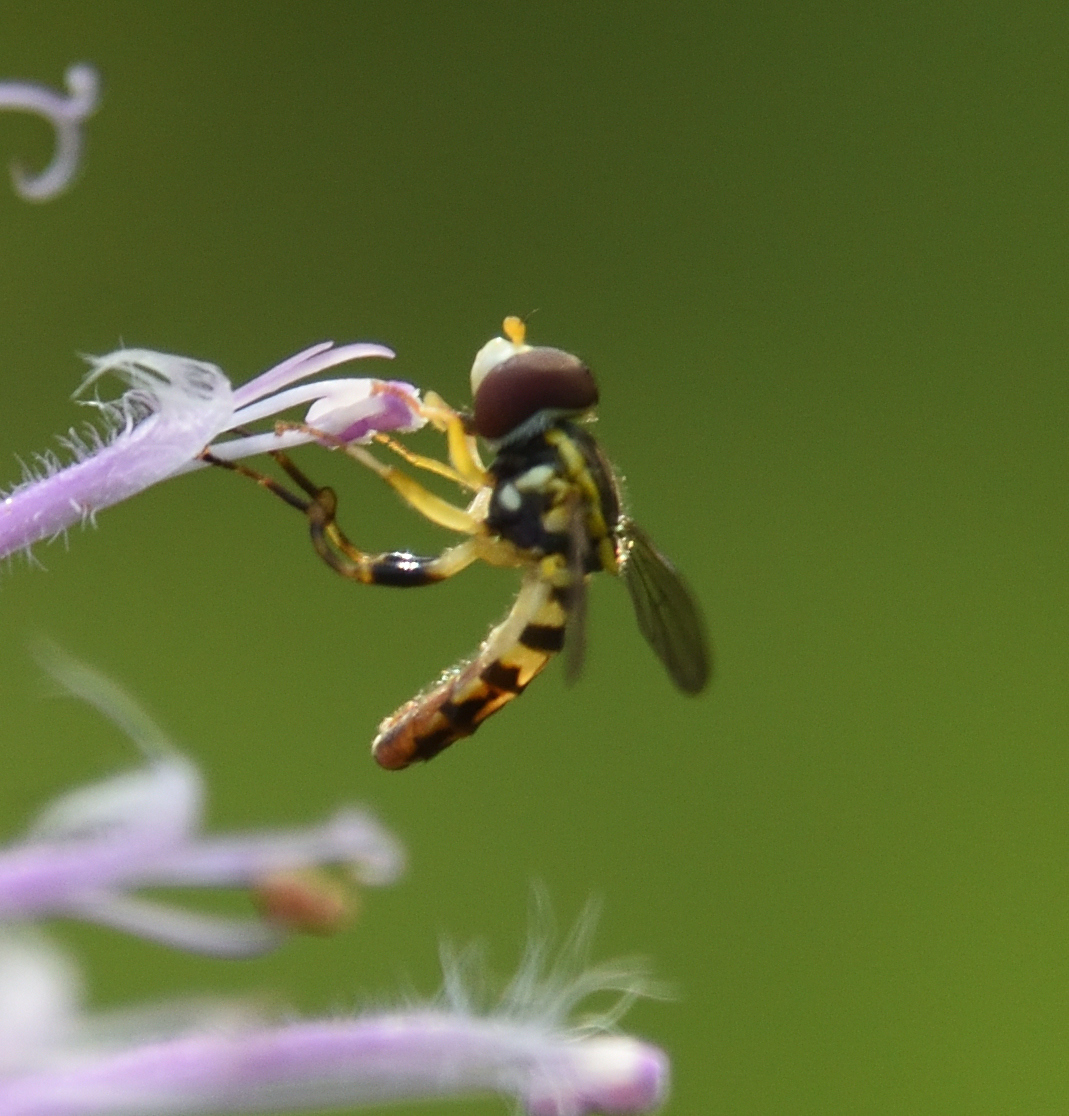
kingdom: Animalia
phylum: Arthropoda
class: Insecta
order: Diptera
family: Syrphidae
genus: Toxomerus
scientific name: Toxomerus geminatus
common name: Eastern calligrapher
